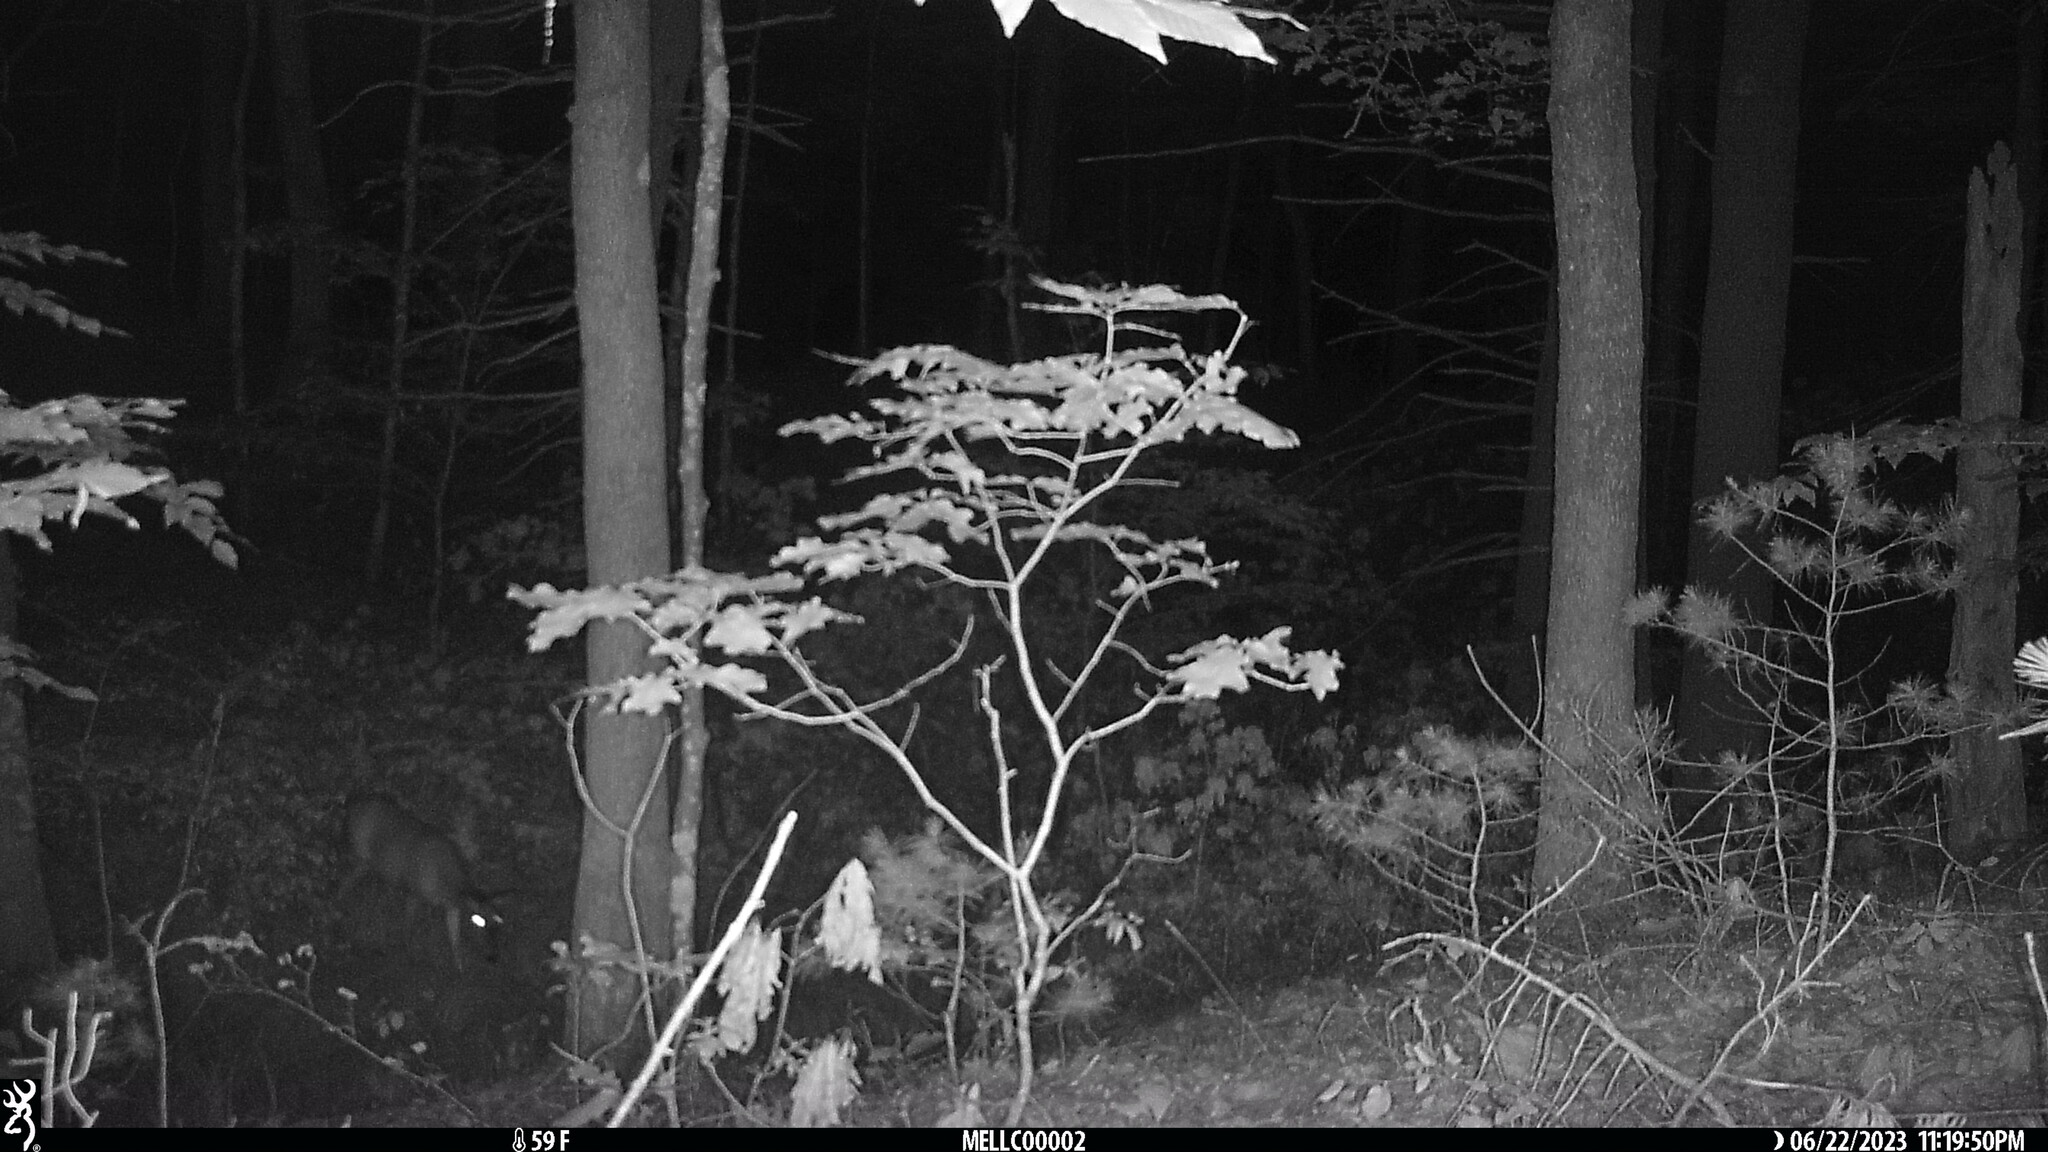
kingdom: Animalia
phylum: Chordata
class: Mammalia
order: Artiodactyla
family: Cervidae
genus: Odocoileus
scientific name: Odocoileus virginianus
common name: White-tailed deer
